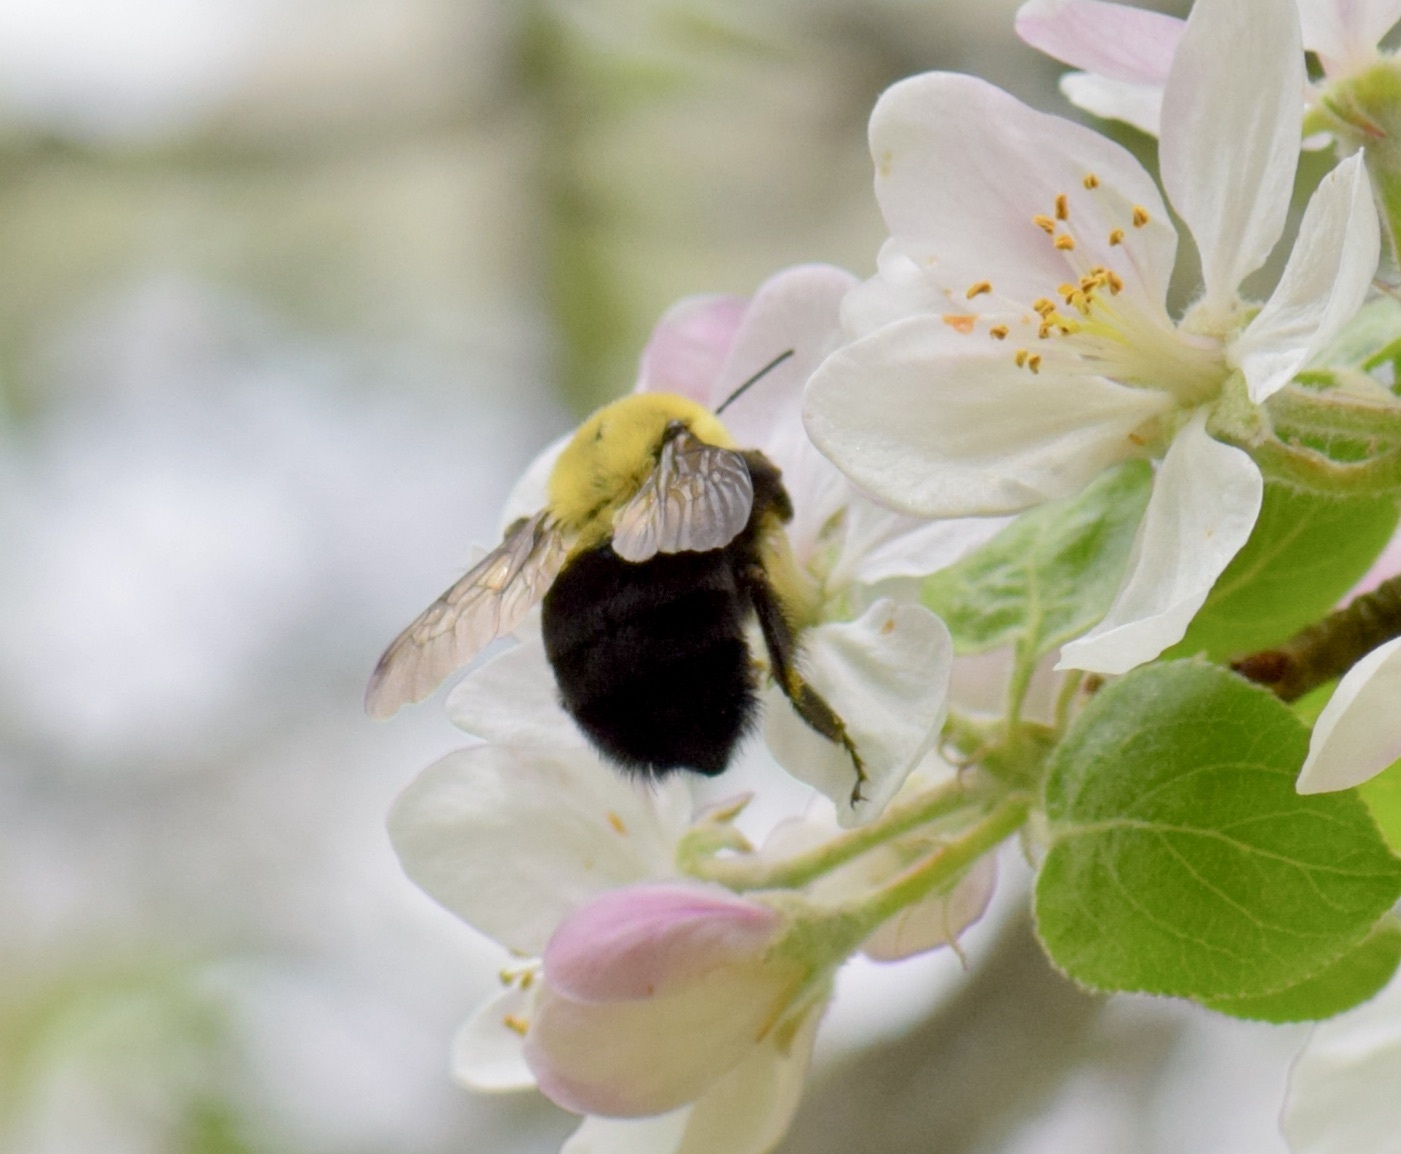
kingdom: Animalia
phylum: Arthropoda
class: Insecta
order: Hymenoptera
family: Apidae
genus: Bombus
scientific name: Bombus impatiens
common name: Common eastern bumble bee
